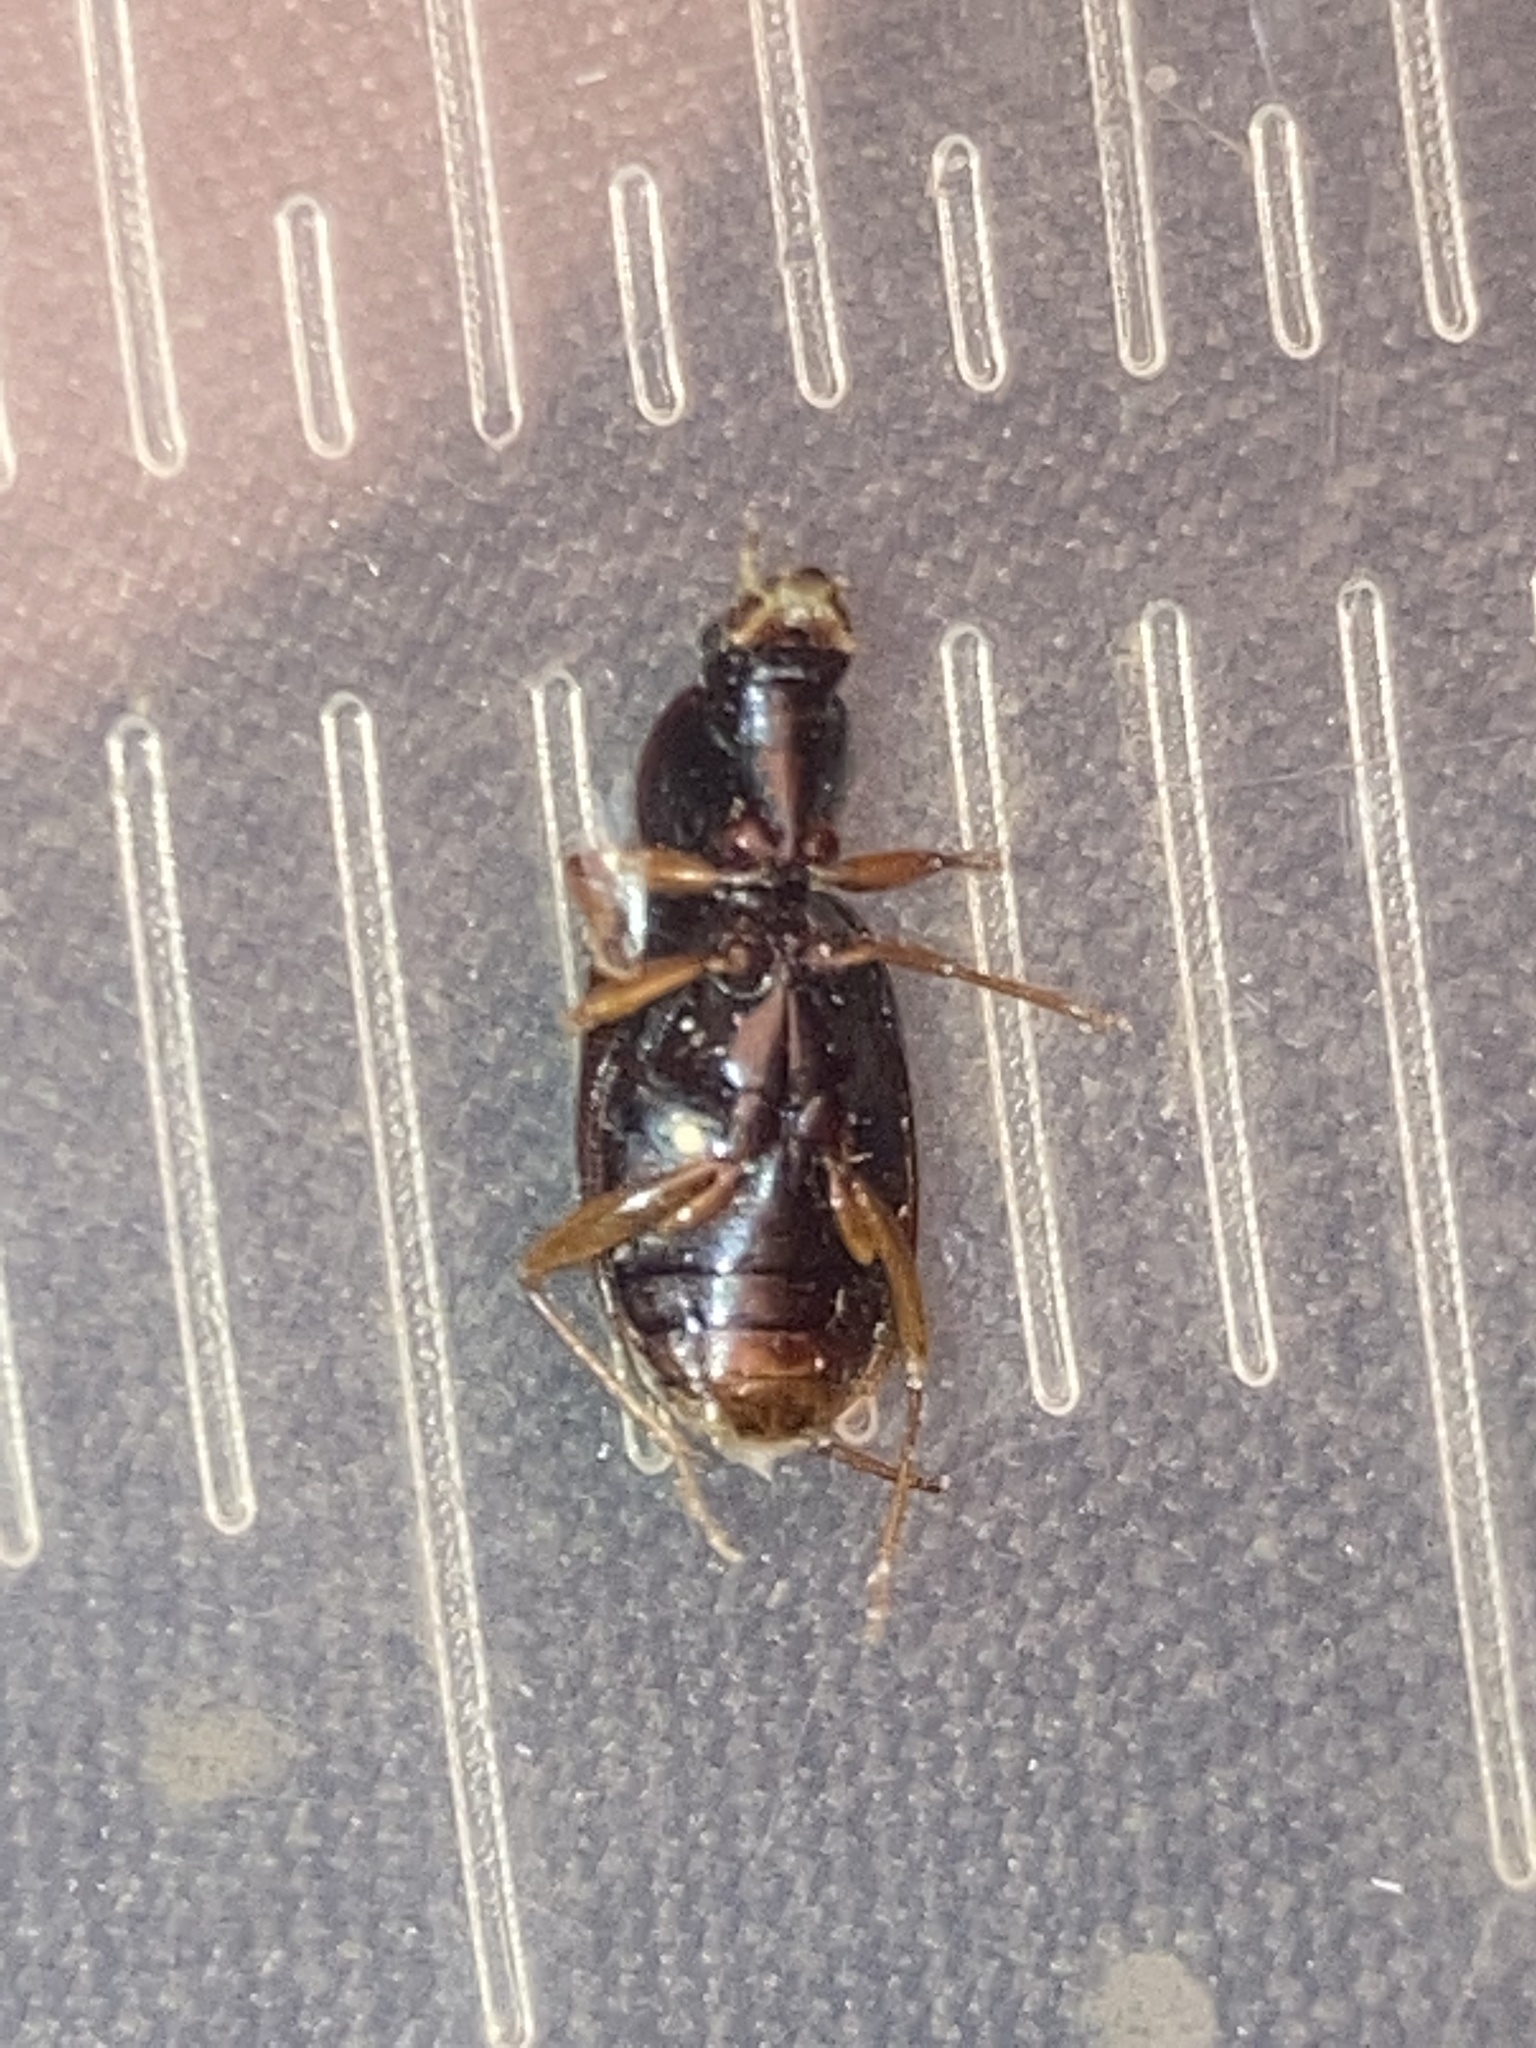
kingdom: Animalia
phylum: Arthropoda
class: Insecta
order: Coleoptera
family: Carabidae
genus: Agonum
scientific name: Agonum punctiforme
